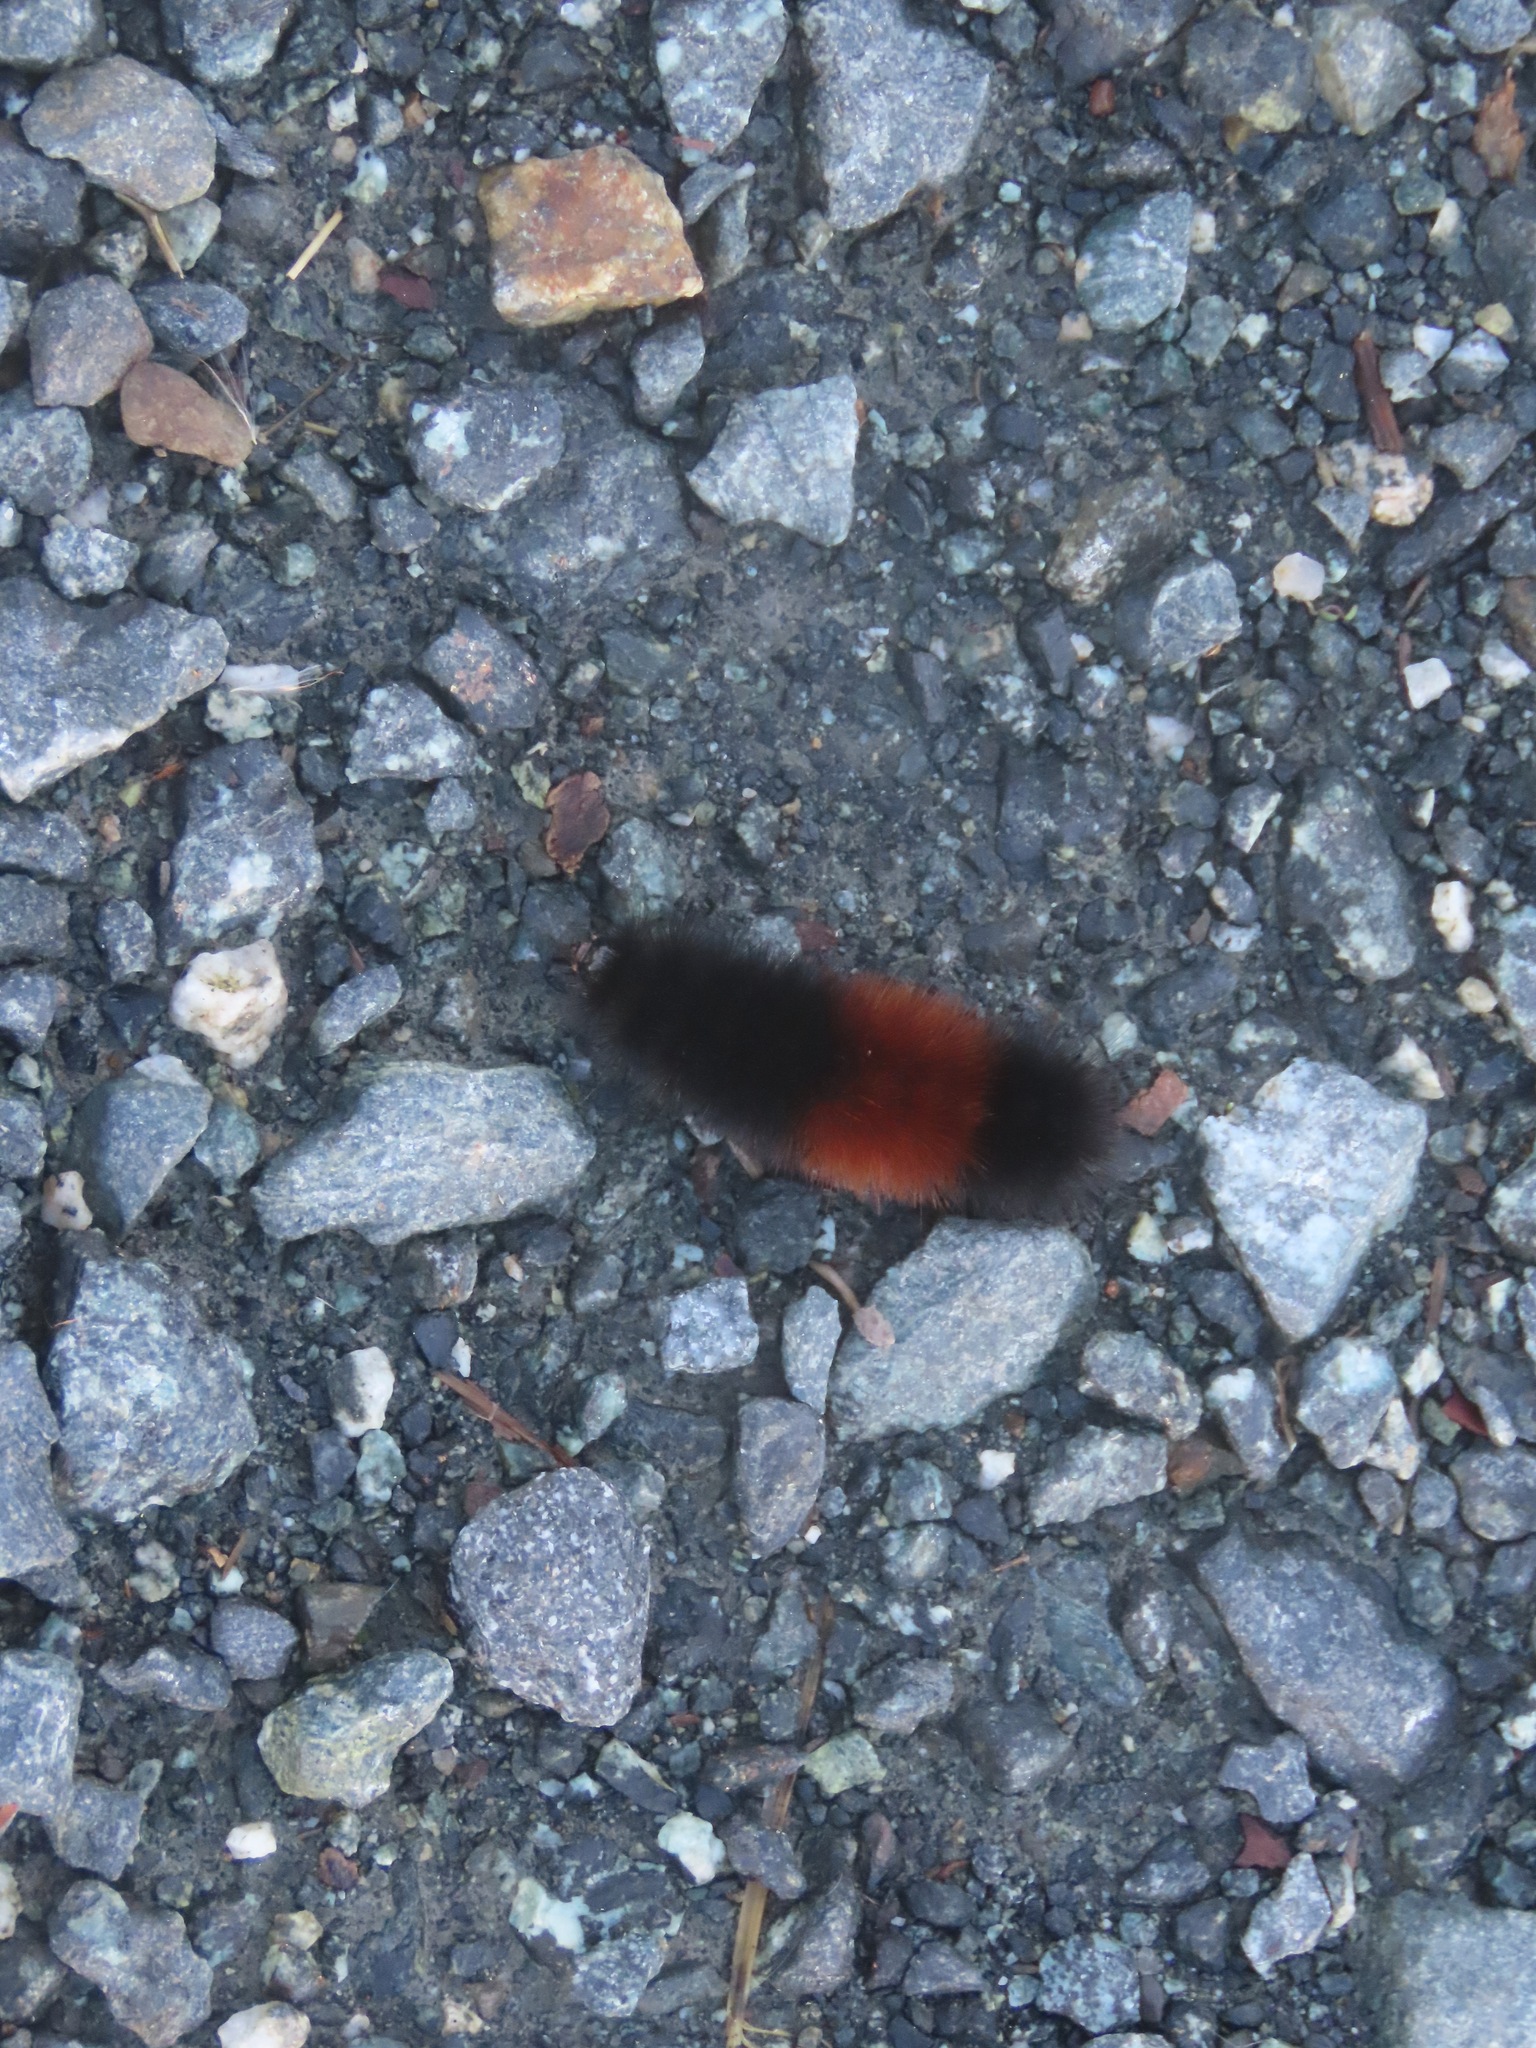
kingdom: Animalia
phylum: Arthropoda
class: Insecta
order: Lepidoptera
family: Erebidae
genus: Pyrrharctia
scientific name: Pyrrharctia isabella
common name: Isabella tiger moth
